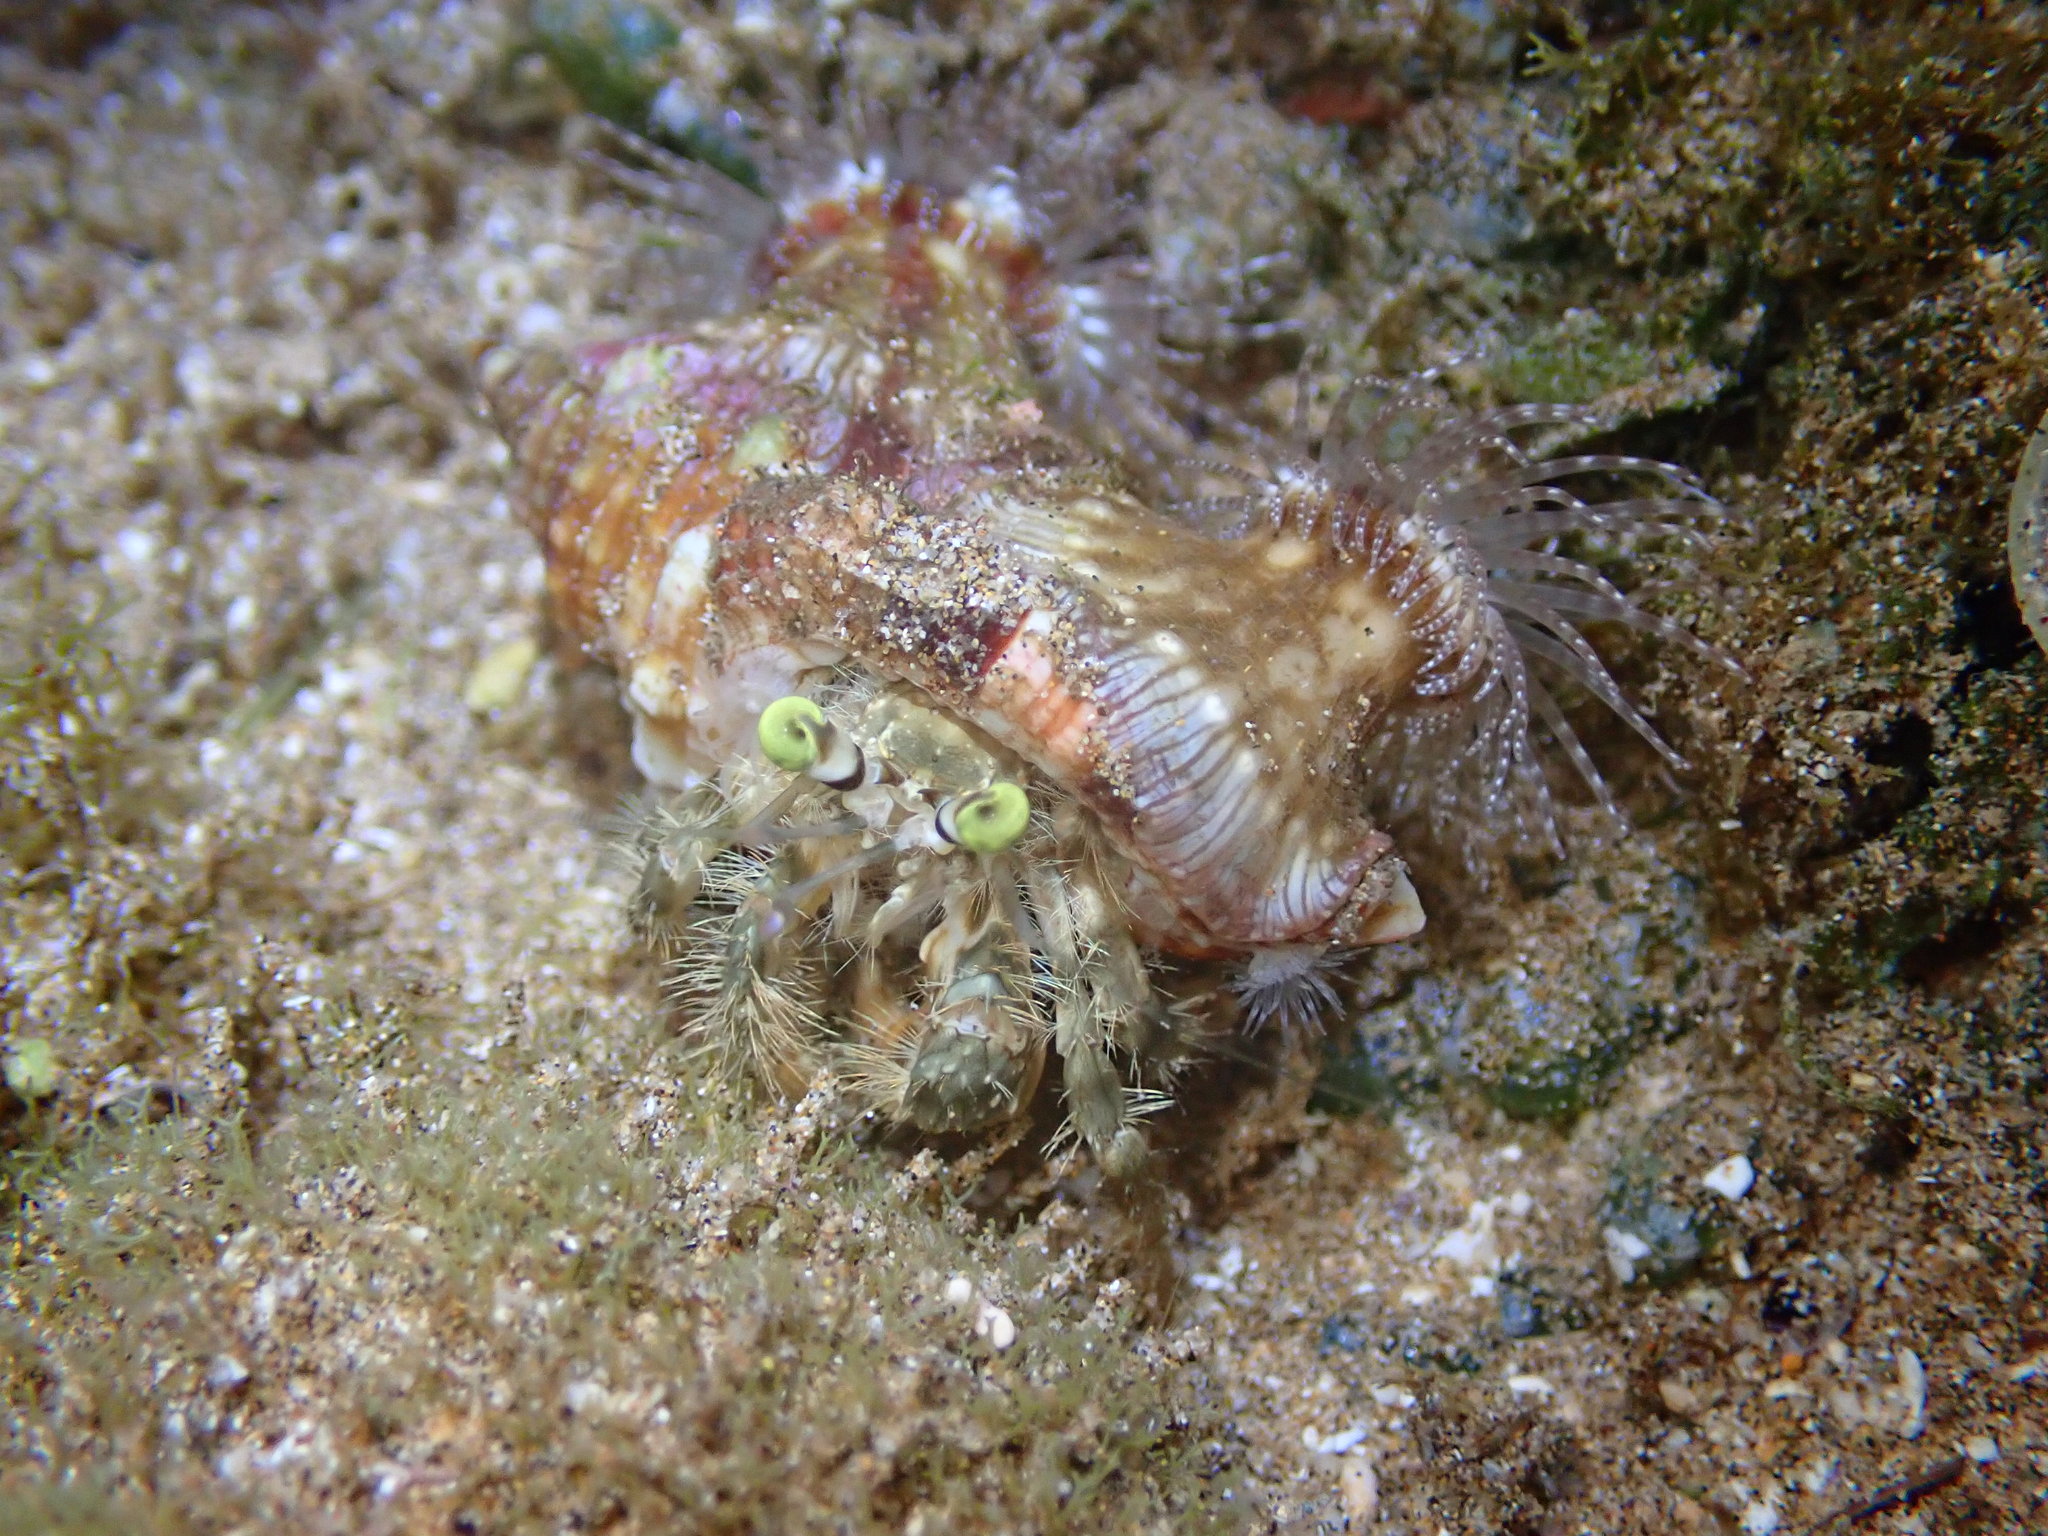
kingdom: Animalia
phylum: Arthropoda
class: Malacostraca
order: Decapoda
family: Diogenidae
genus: Dardanus
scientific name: Dardanus deformis
